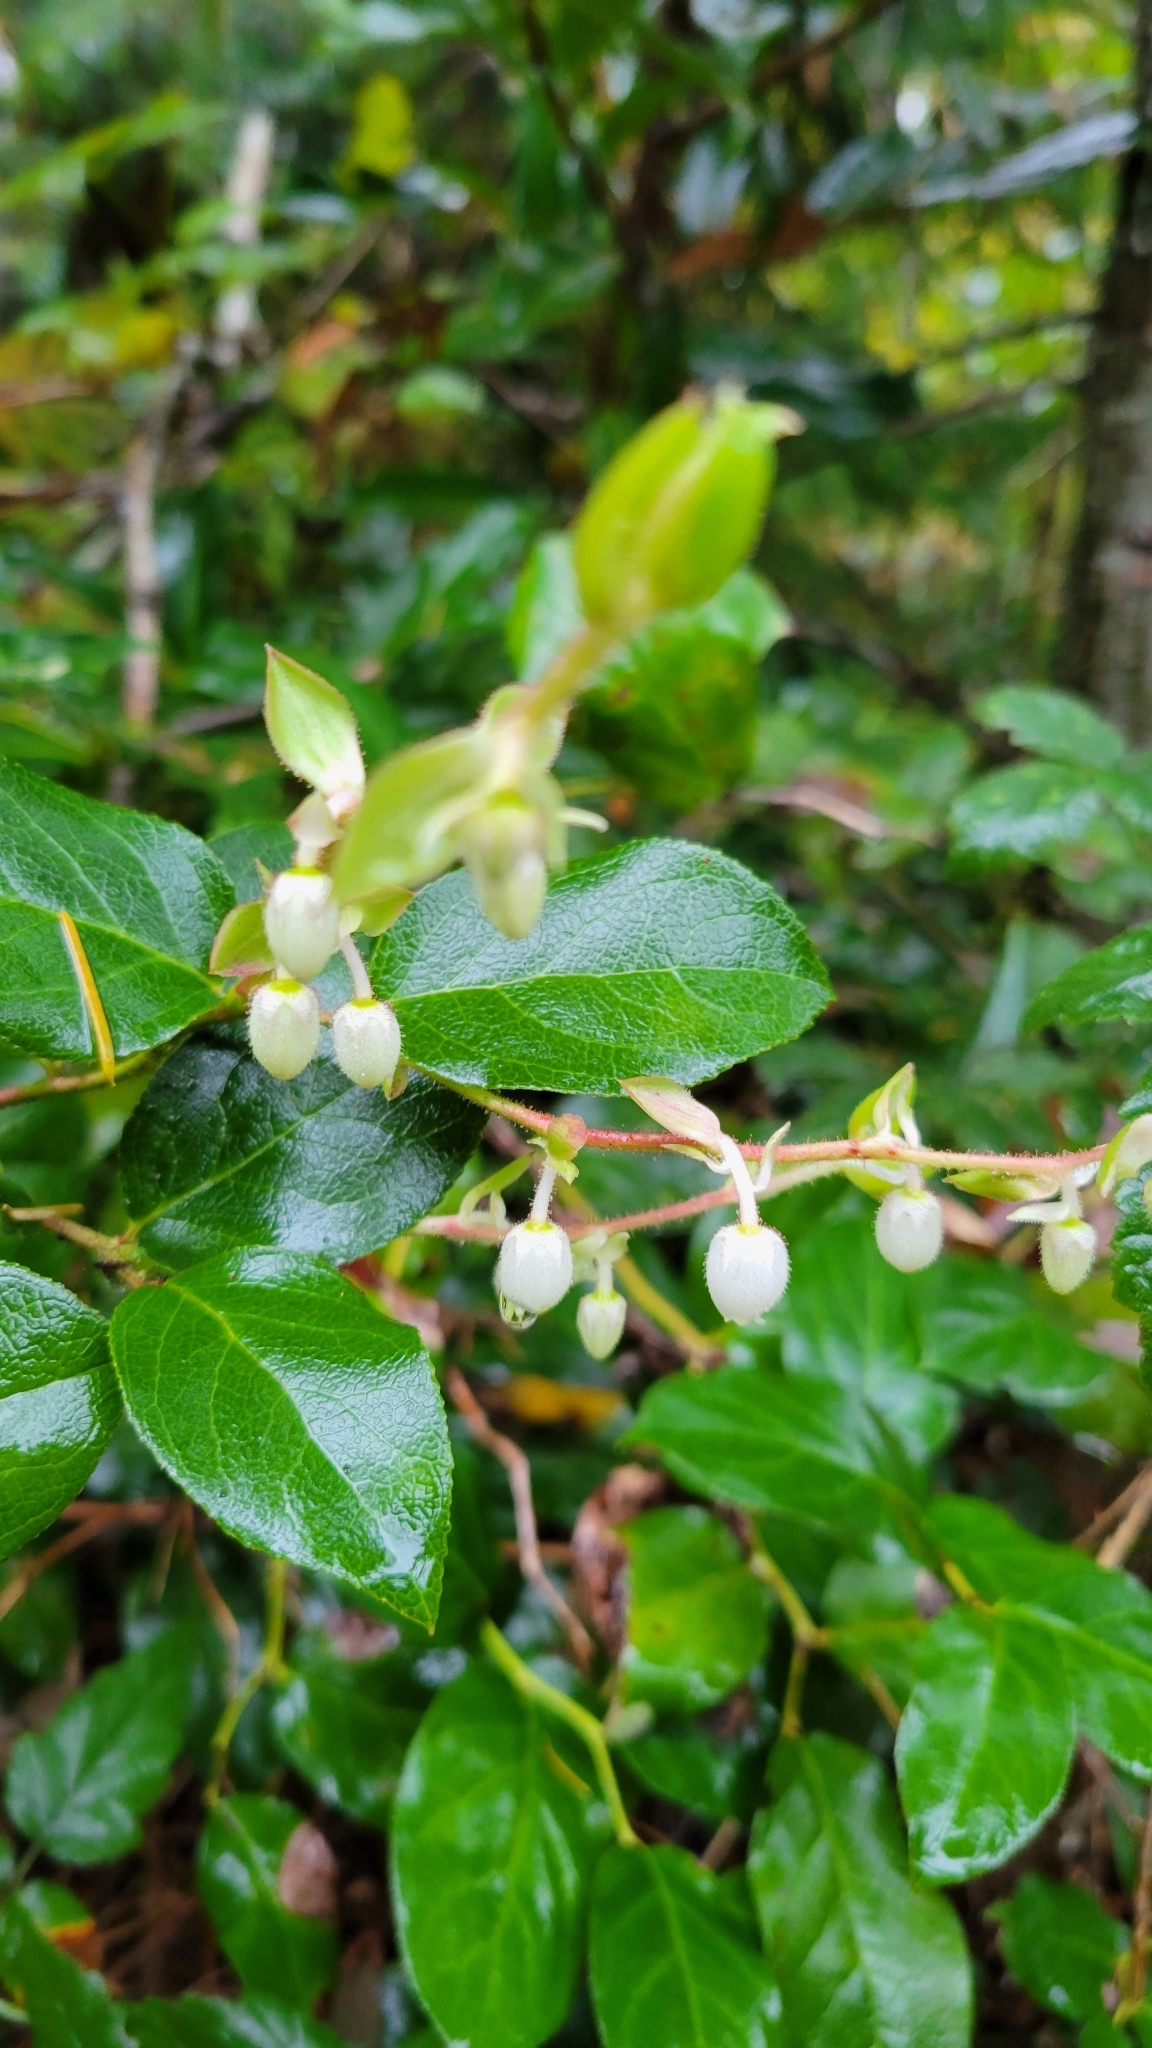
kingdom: Plantae
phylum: Tracheophyta
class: Magnoliopsida
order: Ericales
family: Ericaceae
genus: Gaultheria
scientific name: Gaultheria shallon
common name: Shallon
